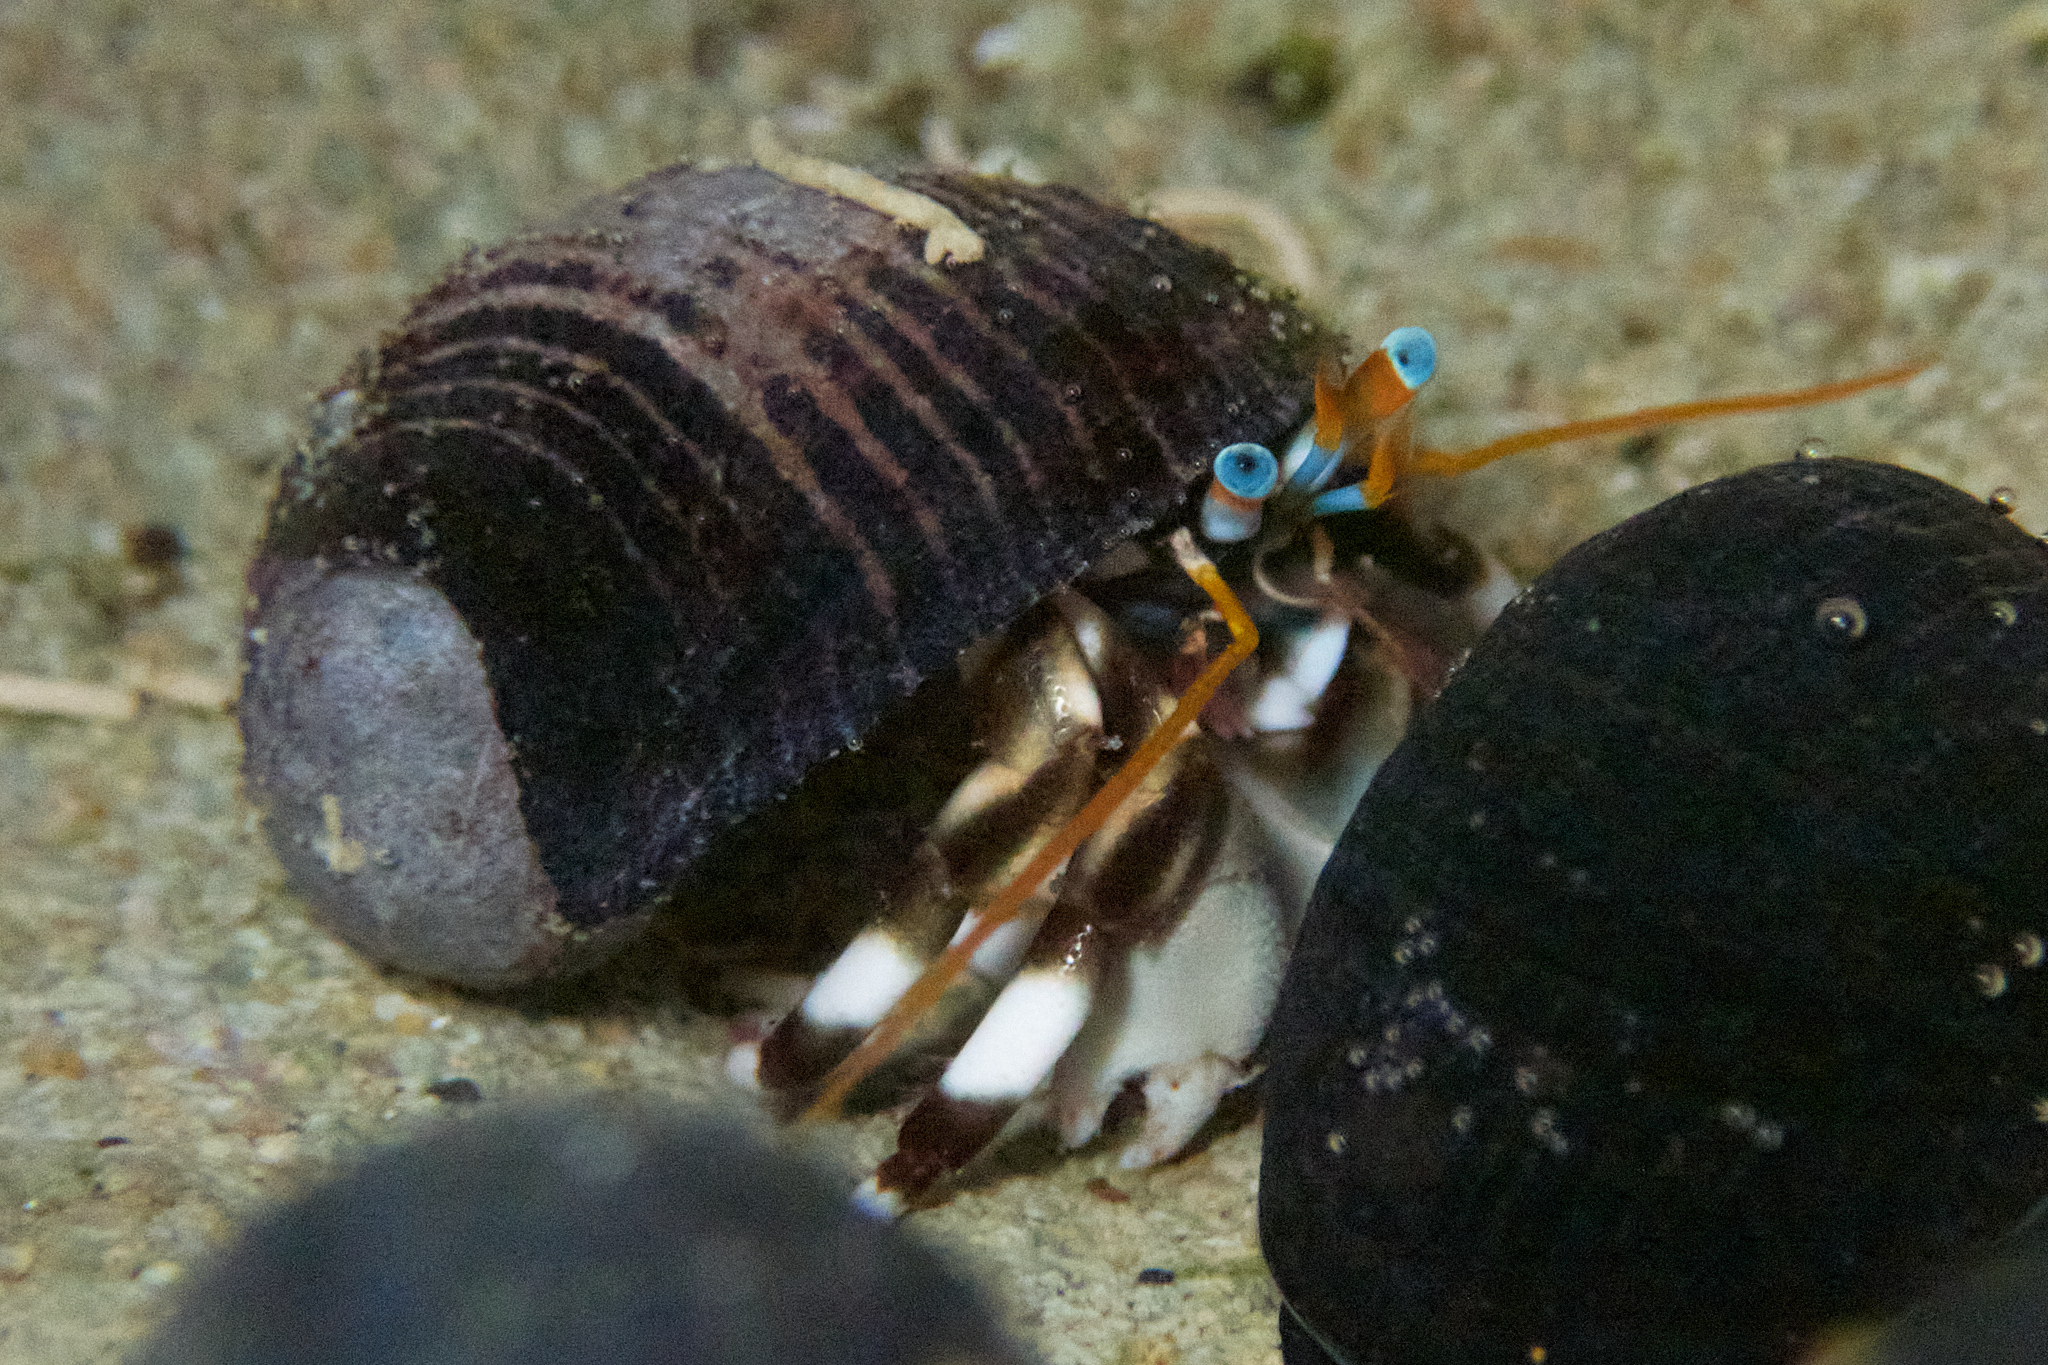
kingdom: Animalia
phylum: Arthropoda
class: Malacostraca
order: Decapoda
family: Diogenidae
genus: Calcinus
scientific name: Calcinus seurati
